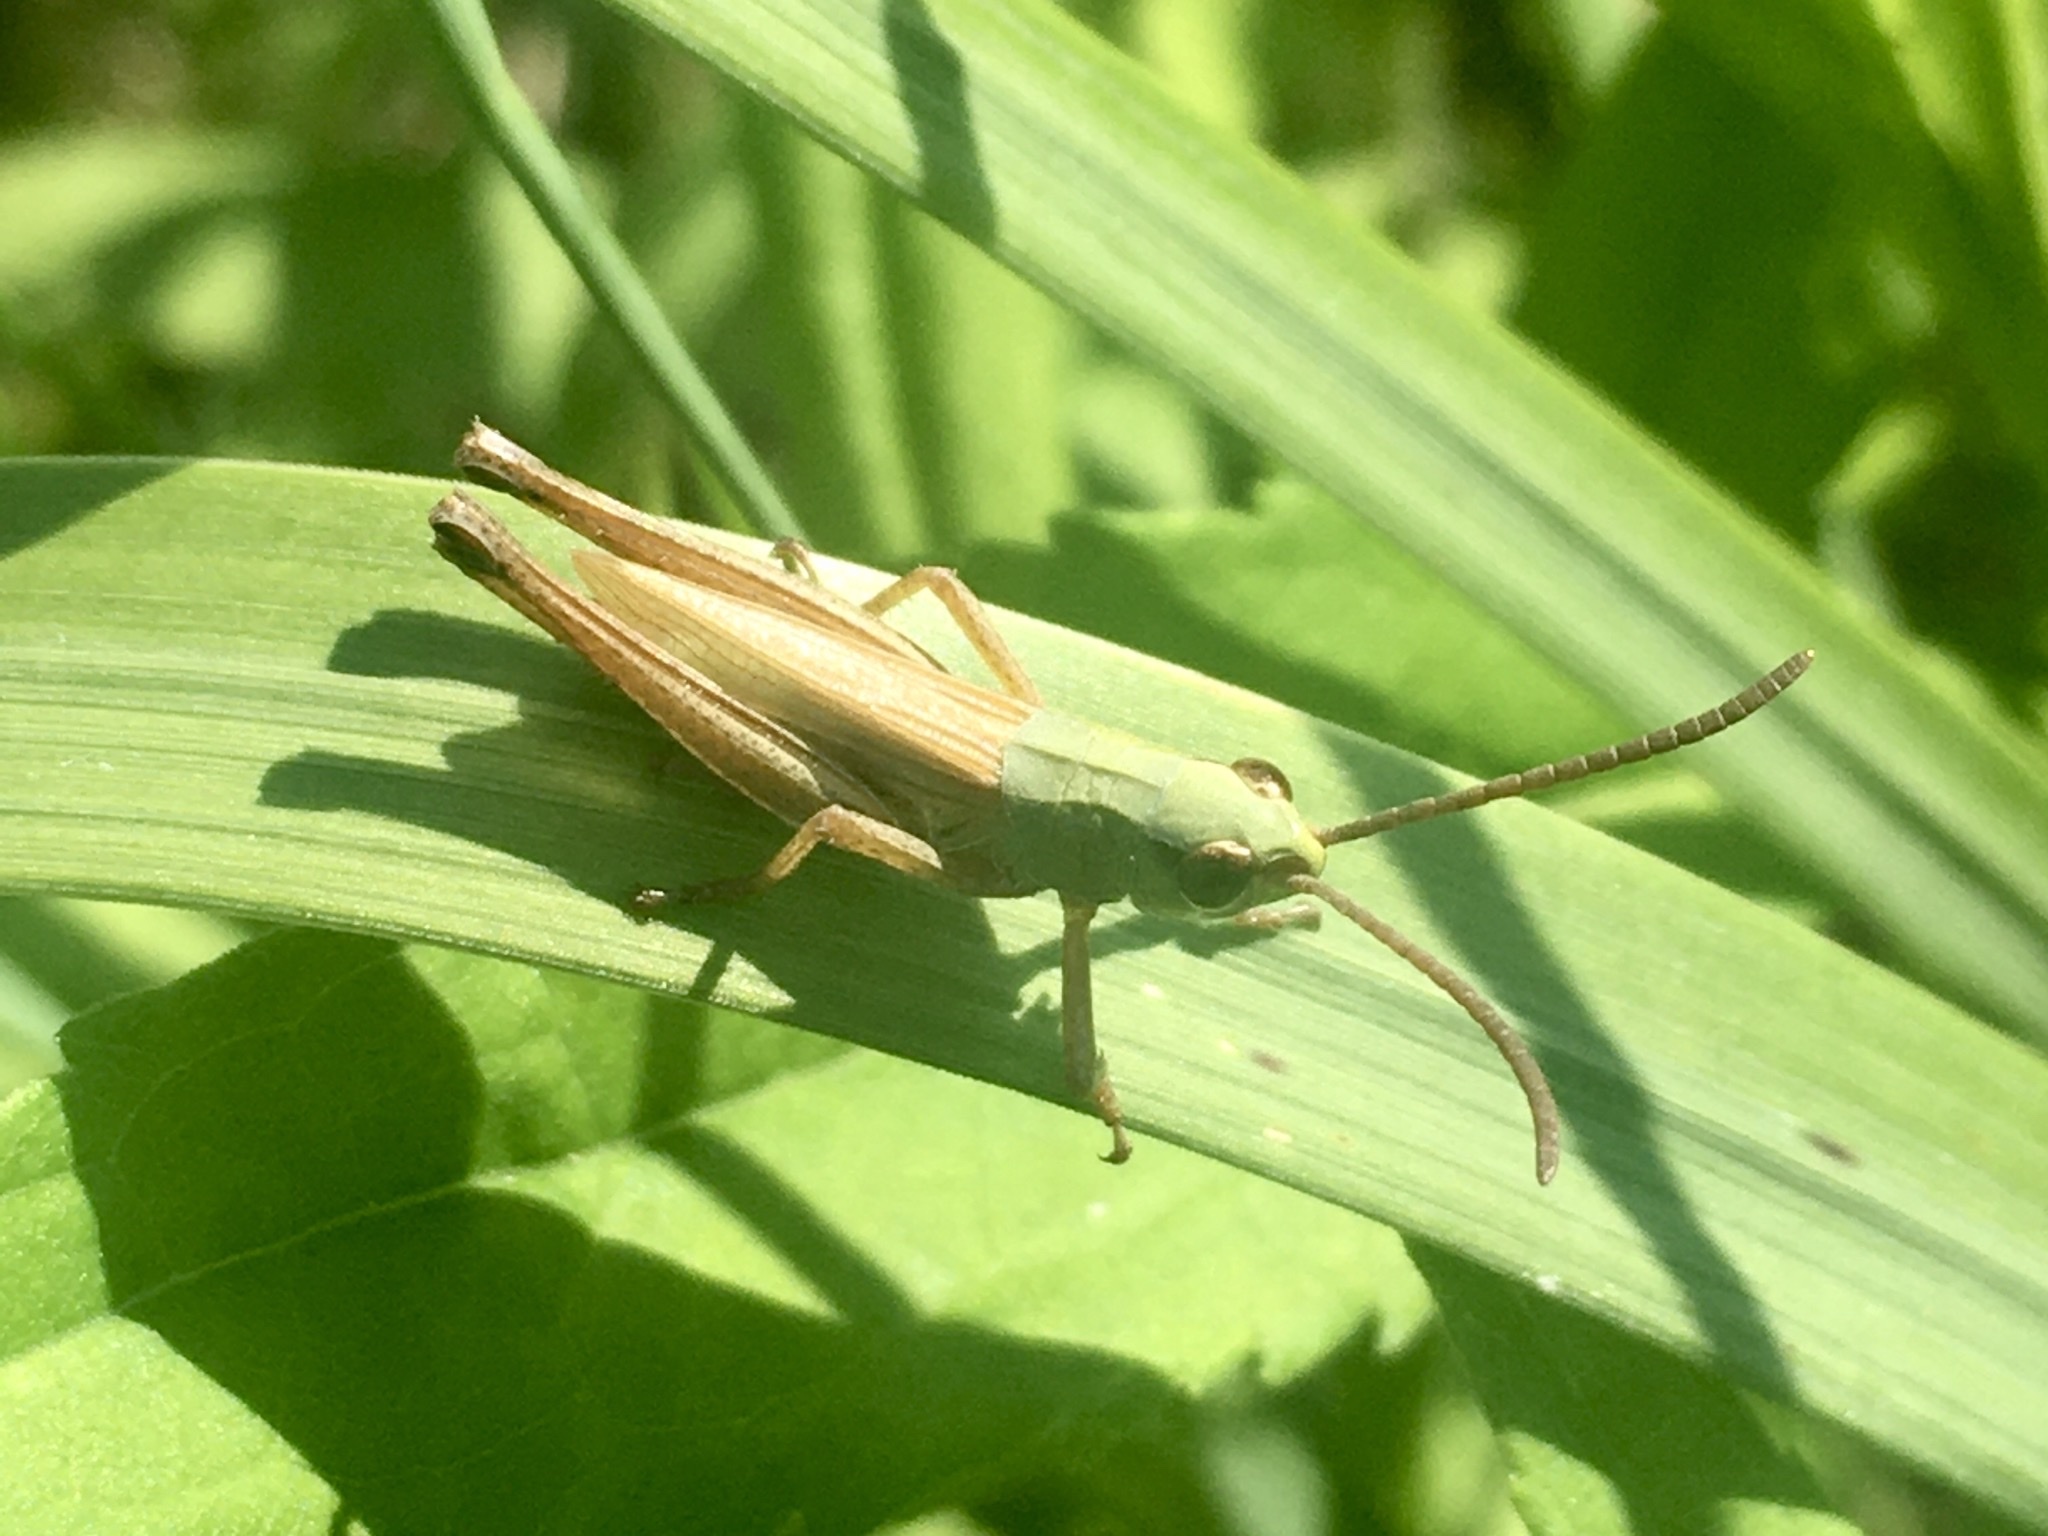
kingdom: Animalia
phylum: Arthropoda
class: Insecta
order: Orthoptera
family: Acrididae
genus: Pseudochorthippus
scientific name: Pseudochorthippus parallelus
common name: Meadow grasshopper
